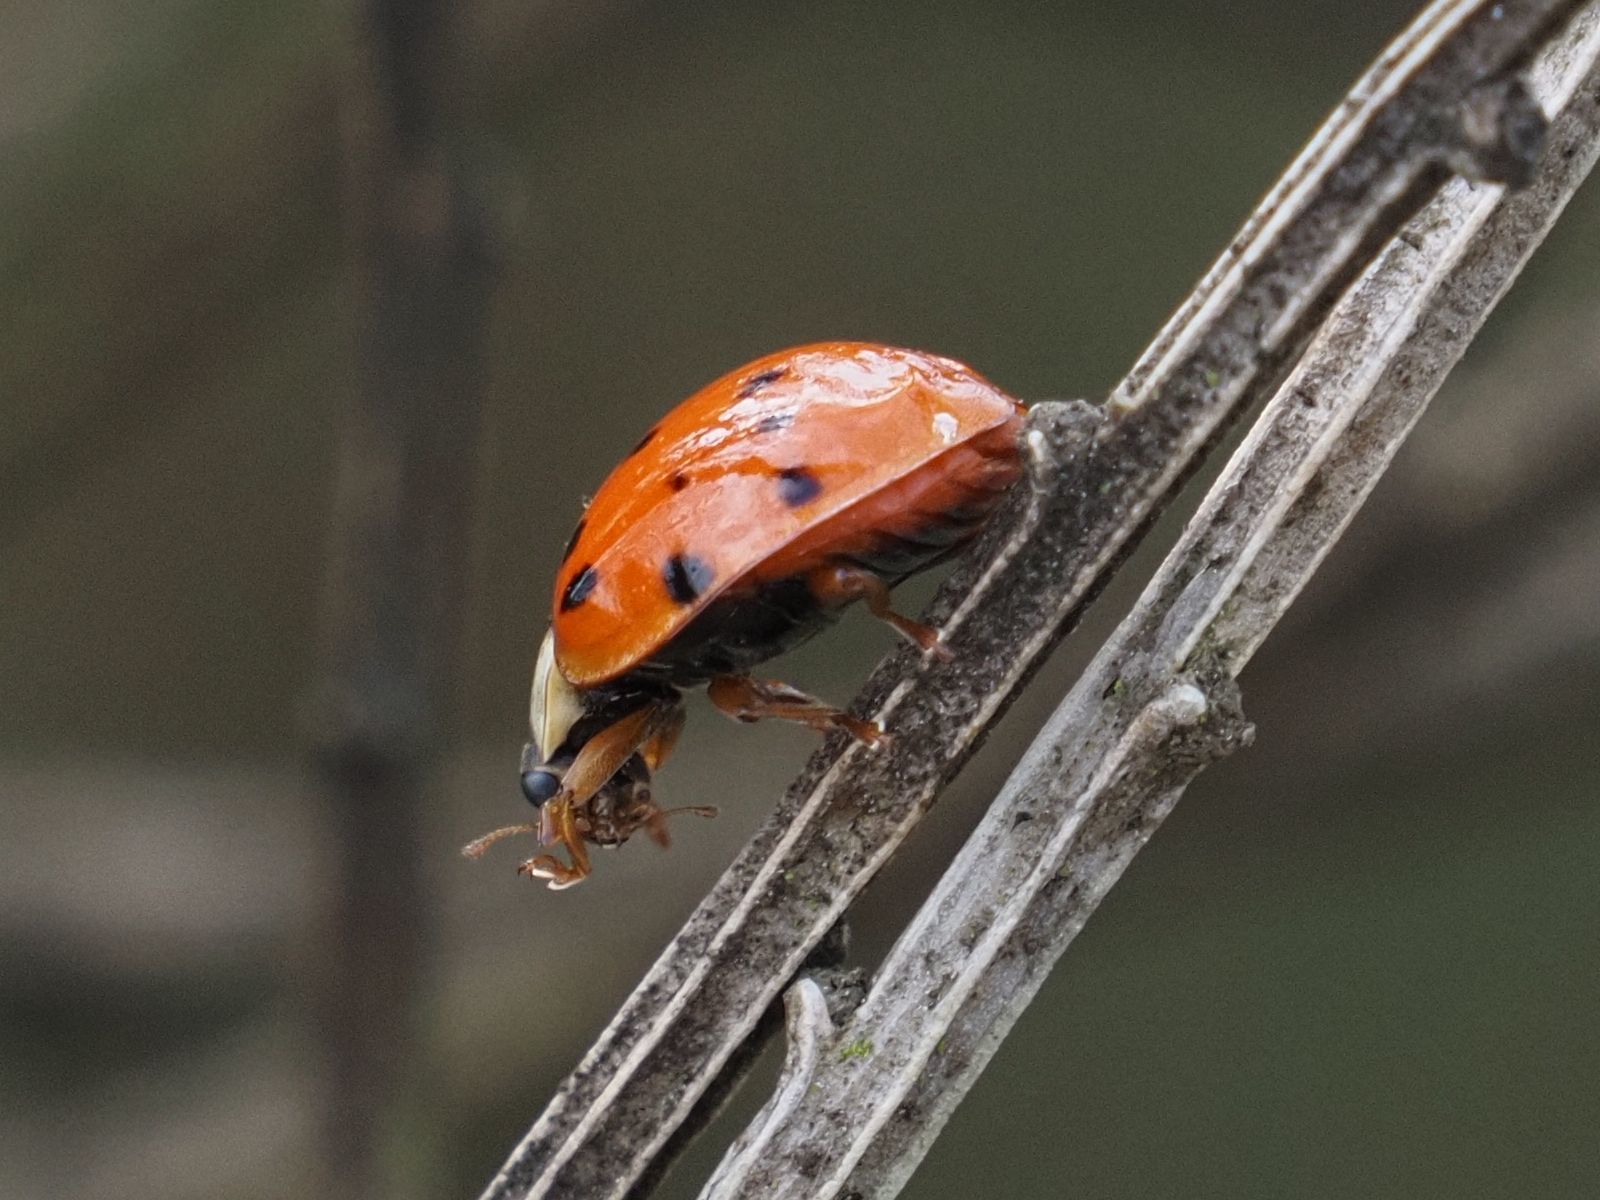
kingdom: Animalia
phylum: Arthropoda
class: Insecta
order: Coleoptera
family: Coccinellidae
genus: Harmonia
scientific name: Harmonia axyridis
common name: Harlequin ladybird
